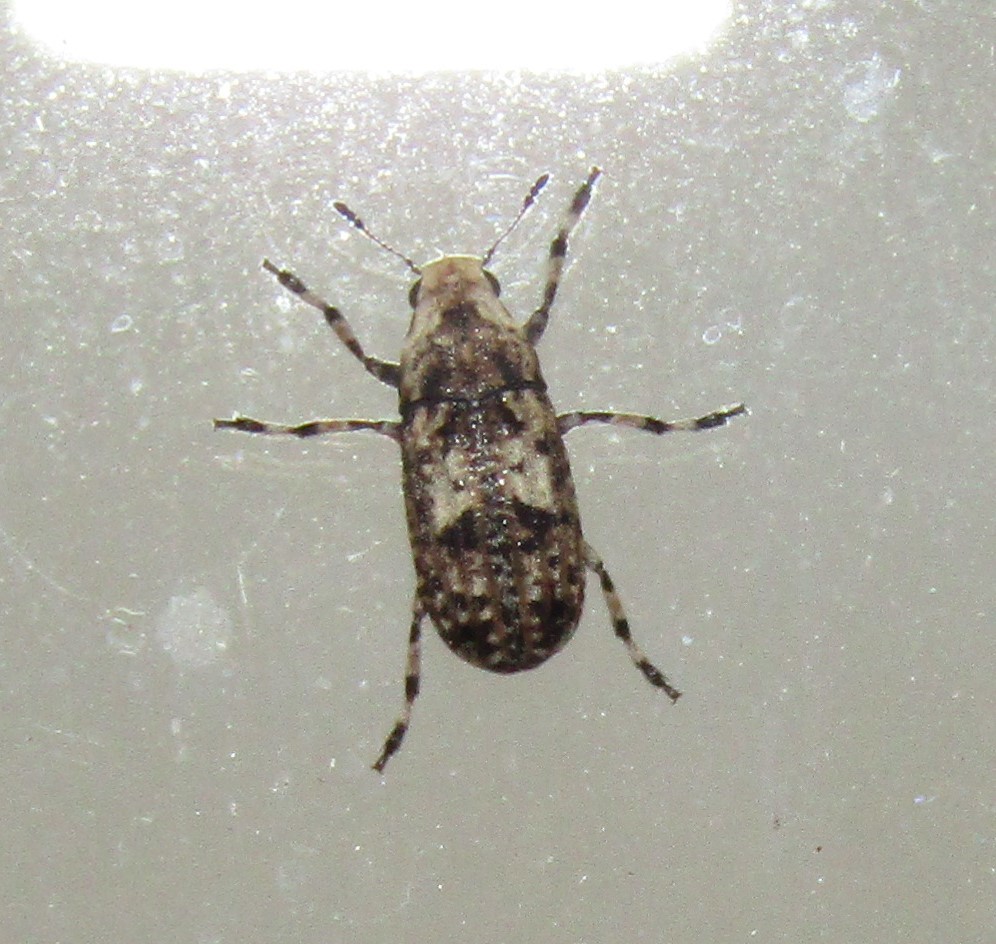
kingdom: Animalia
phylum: Arthropoda
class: Insecta
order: Coleoptera
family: Anthribidae
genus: Euparius
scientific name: Euparius marmoreus
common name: Marbled fungus weevil
